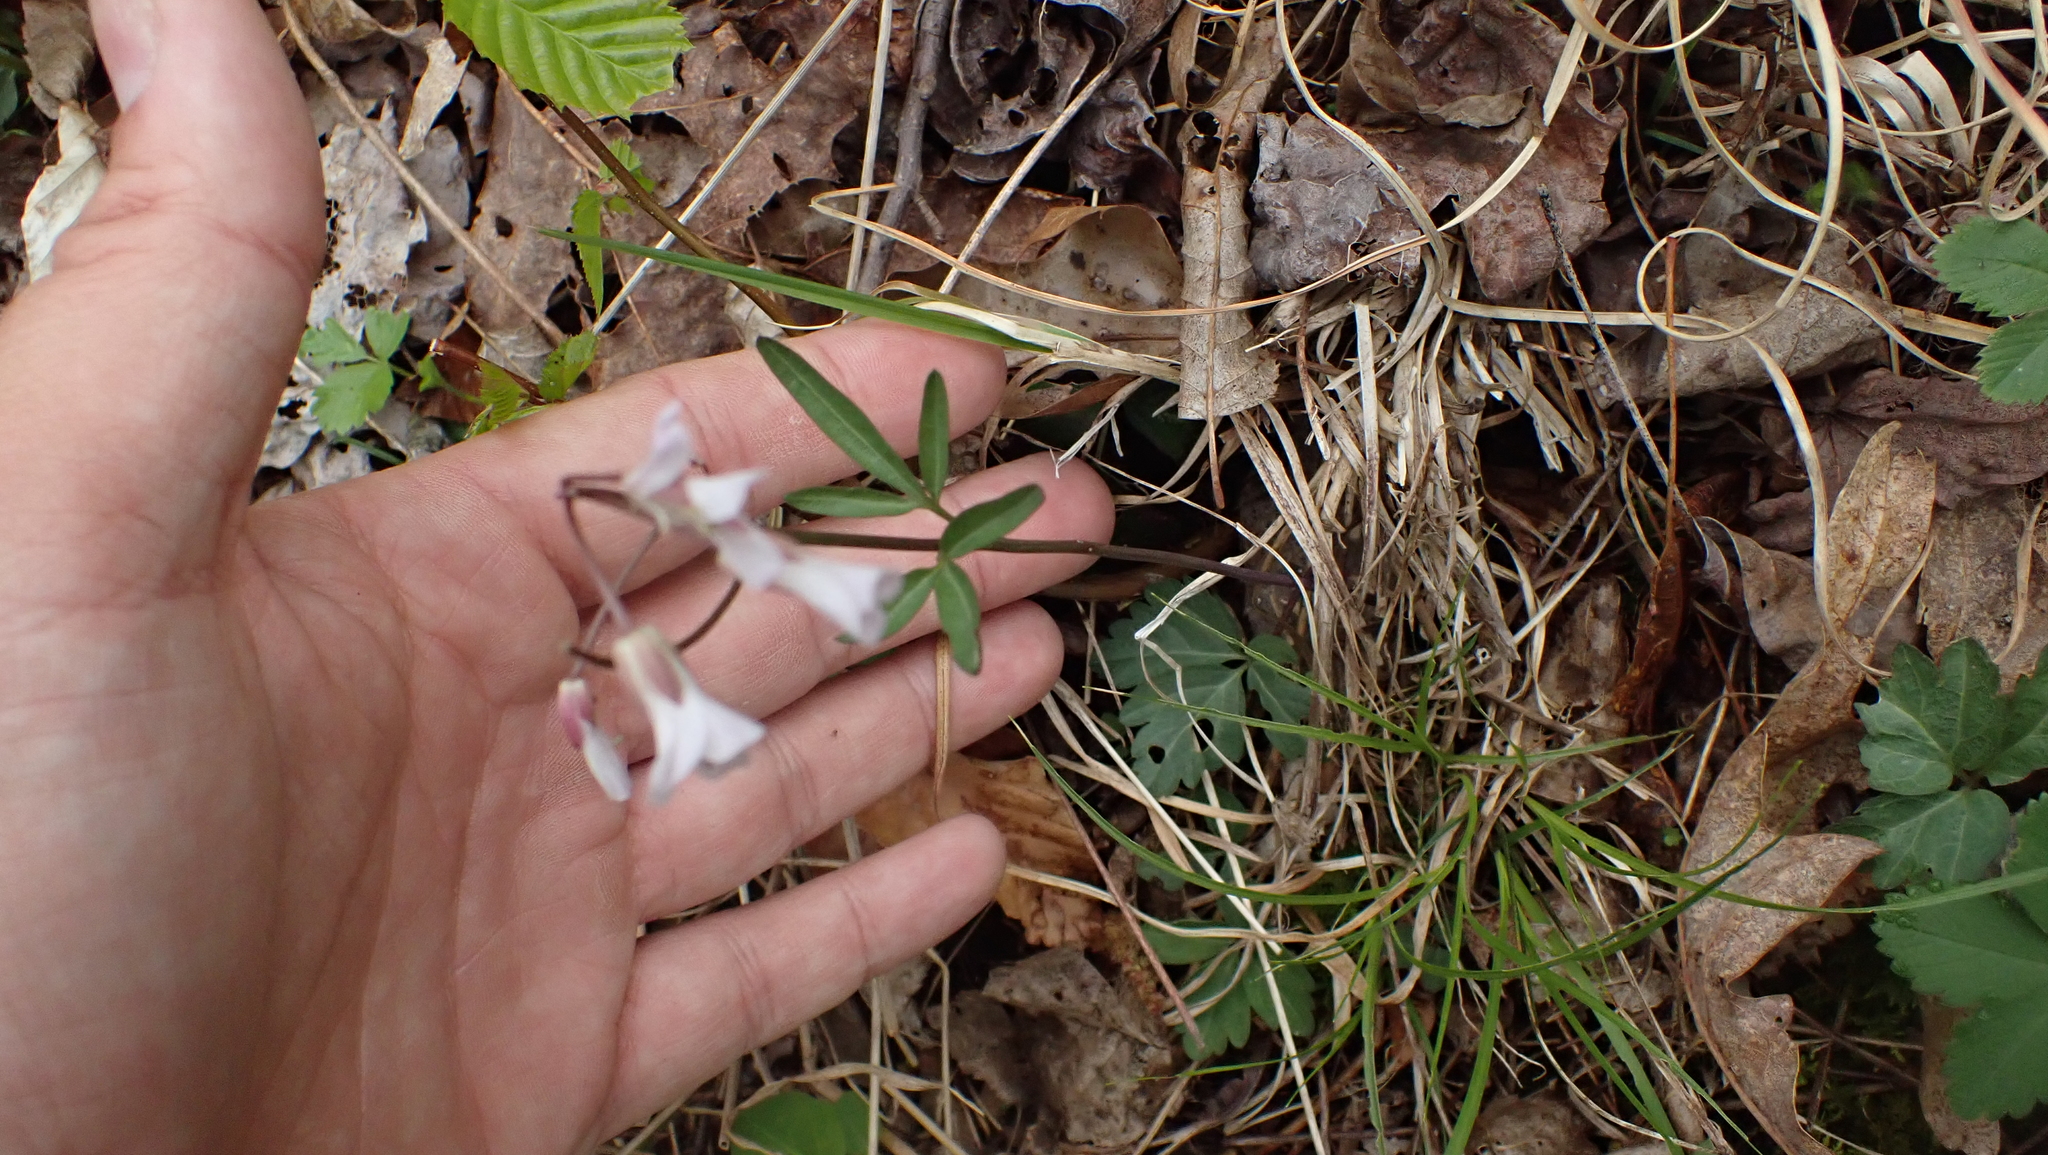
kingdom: Plantae
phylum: Tracheophyta
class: Magnoliopsida
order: Brassicales
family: Brassicaceae
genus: Cardamine
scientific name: Cardamine angustata
